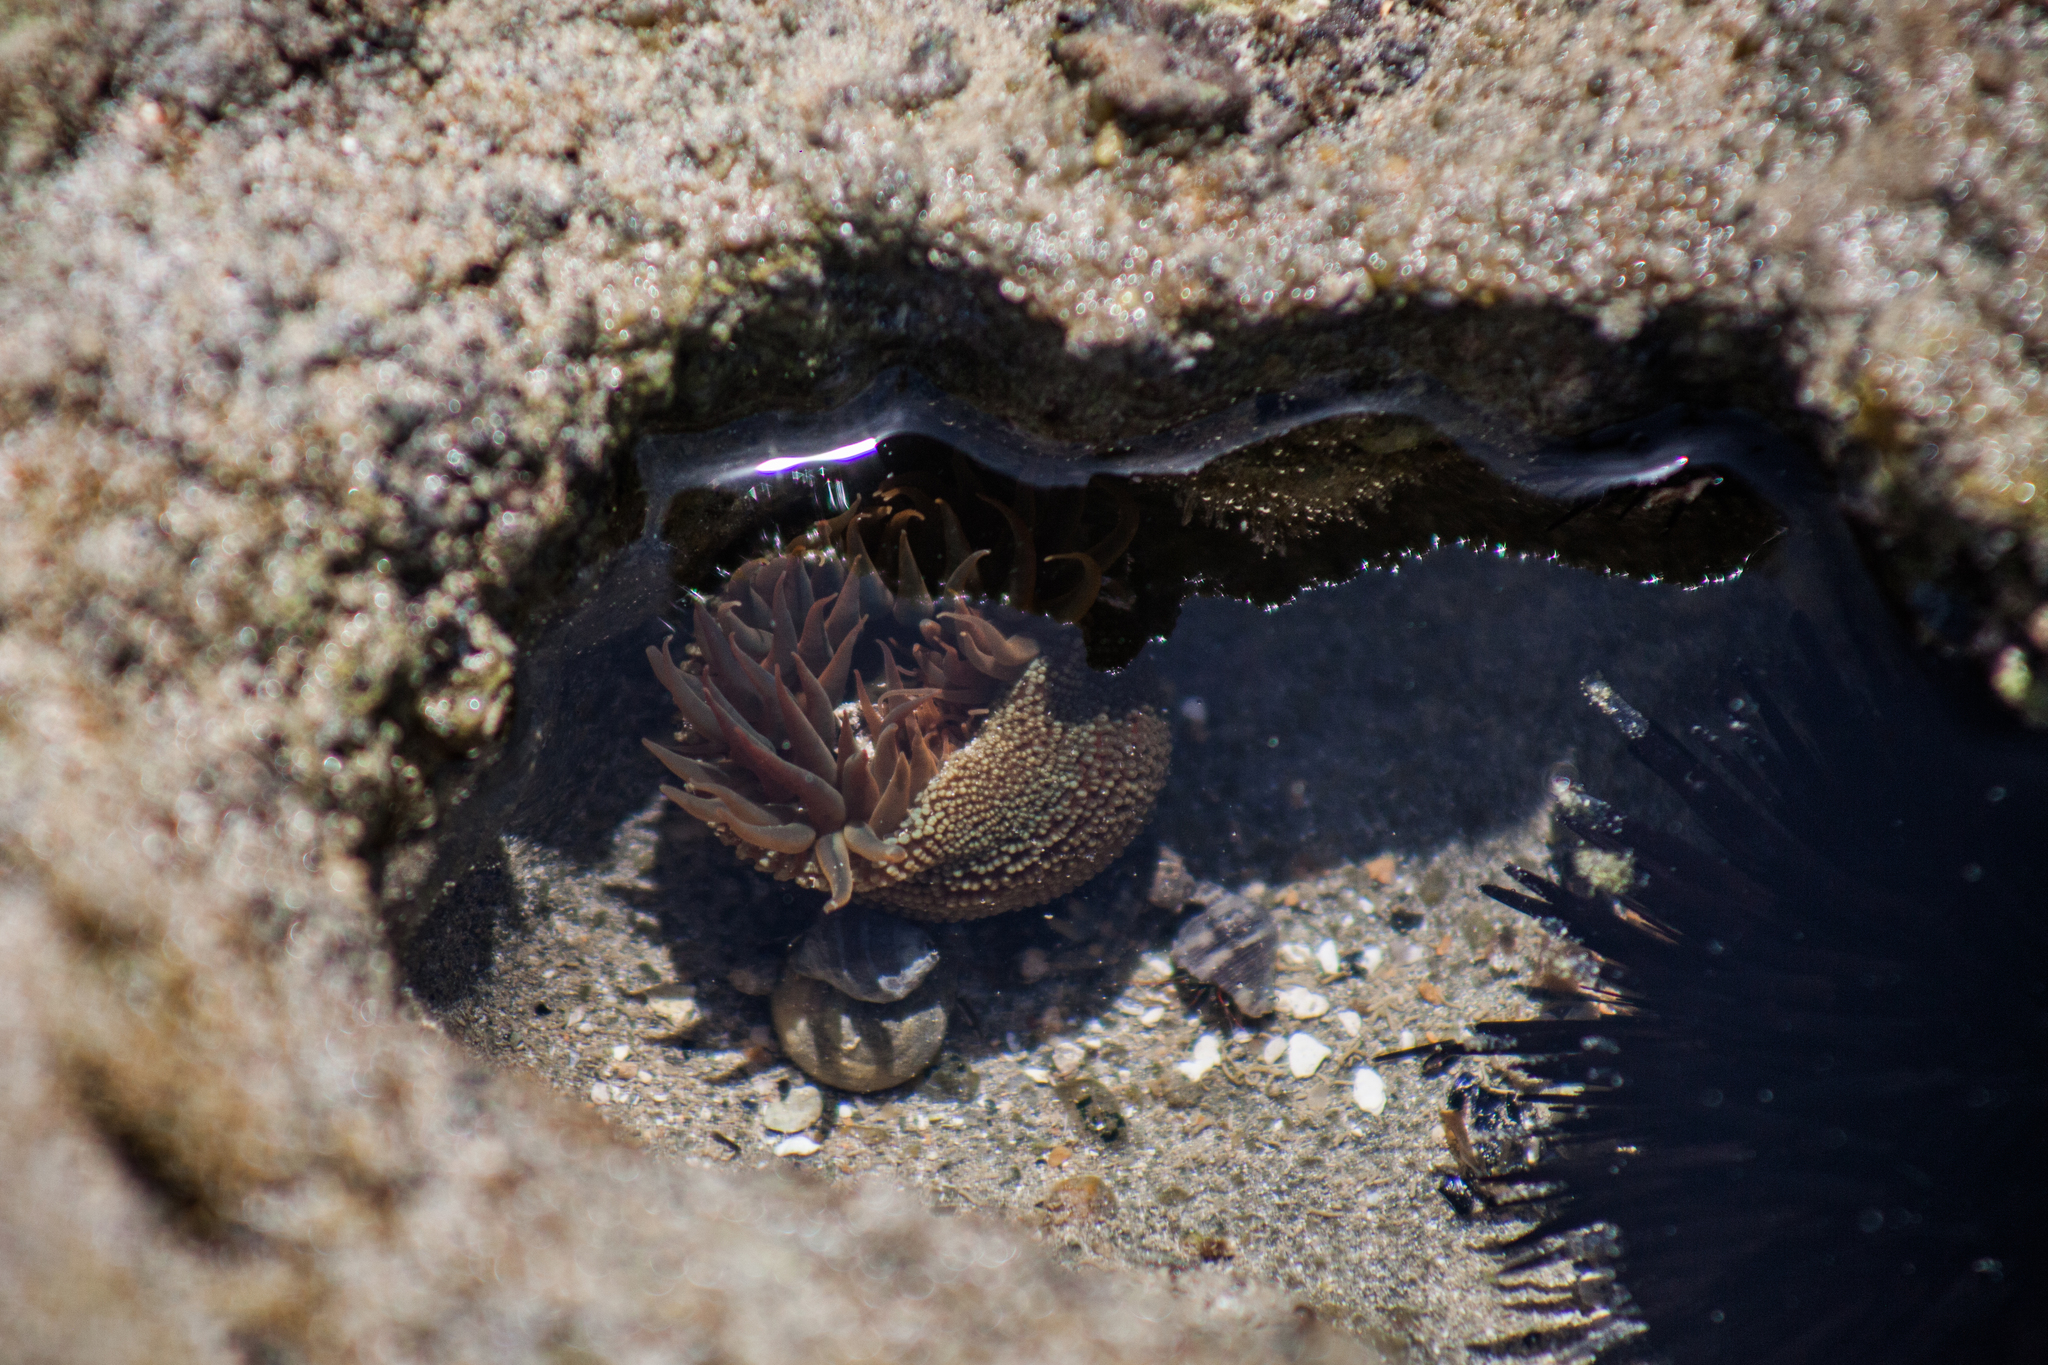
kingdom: Animalia
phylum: Cnidaria
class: Anthozoa
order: Actiniaria
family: Actiniidae
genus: Bunodosoma
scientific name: Bunodosoma cangicum
